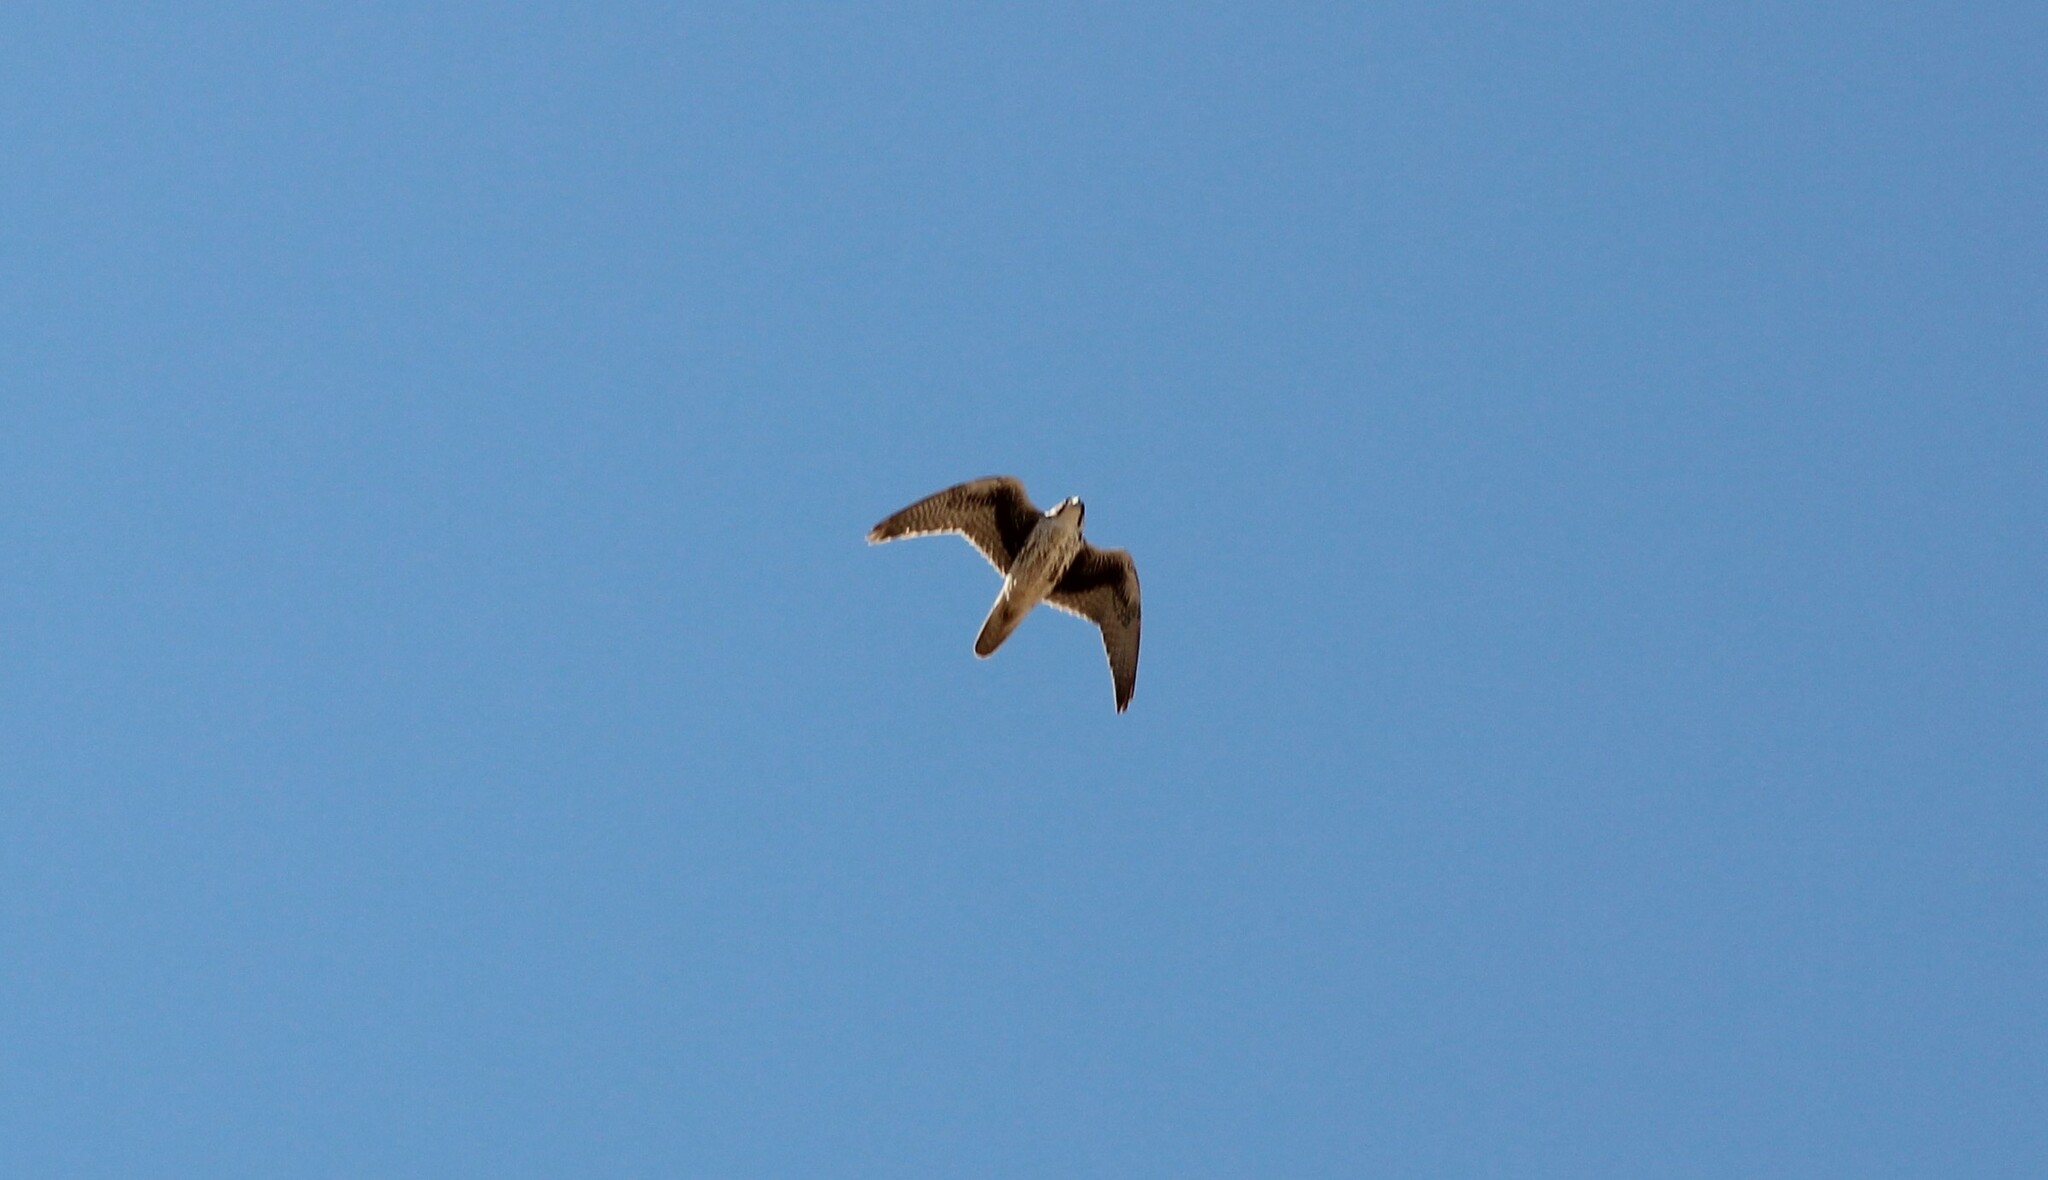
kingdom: Animalia
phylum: Chordata
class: Aves
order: Falconiformes
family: Falconidae
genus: Falco
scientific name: Falco mexicanus
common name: Prairie falcon
